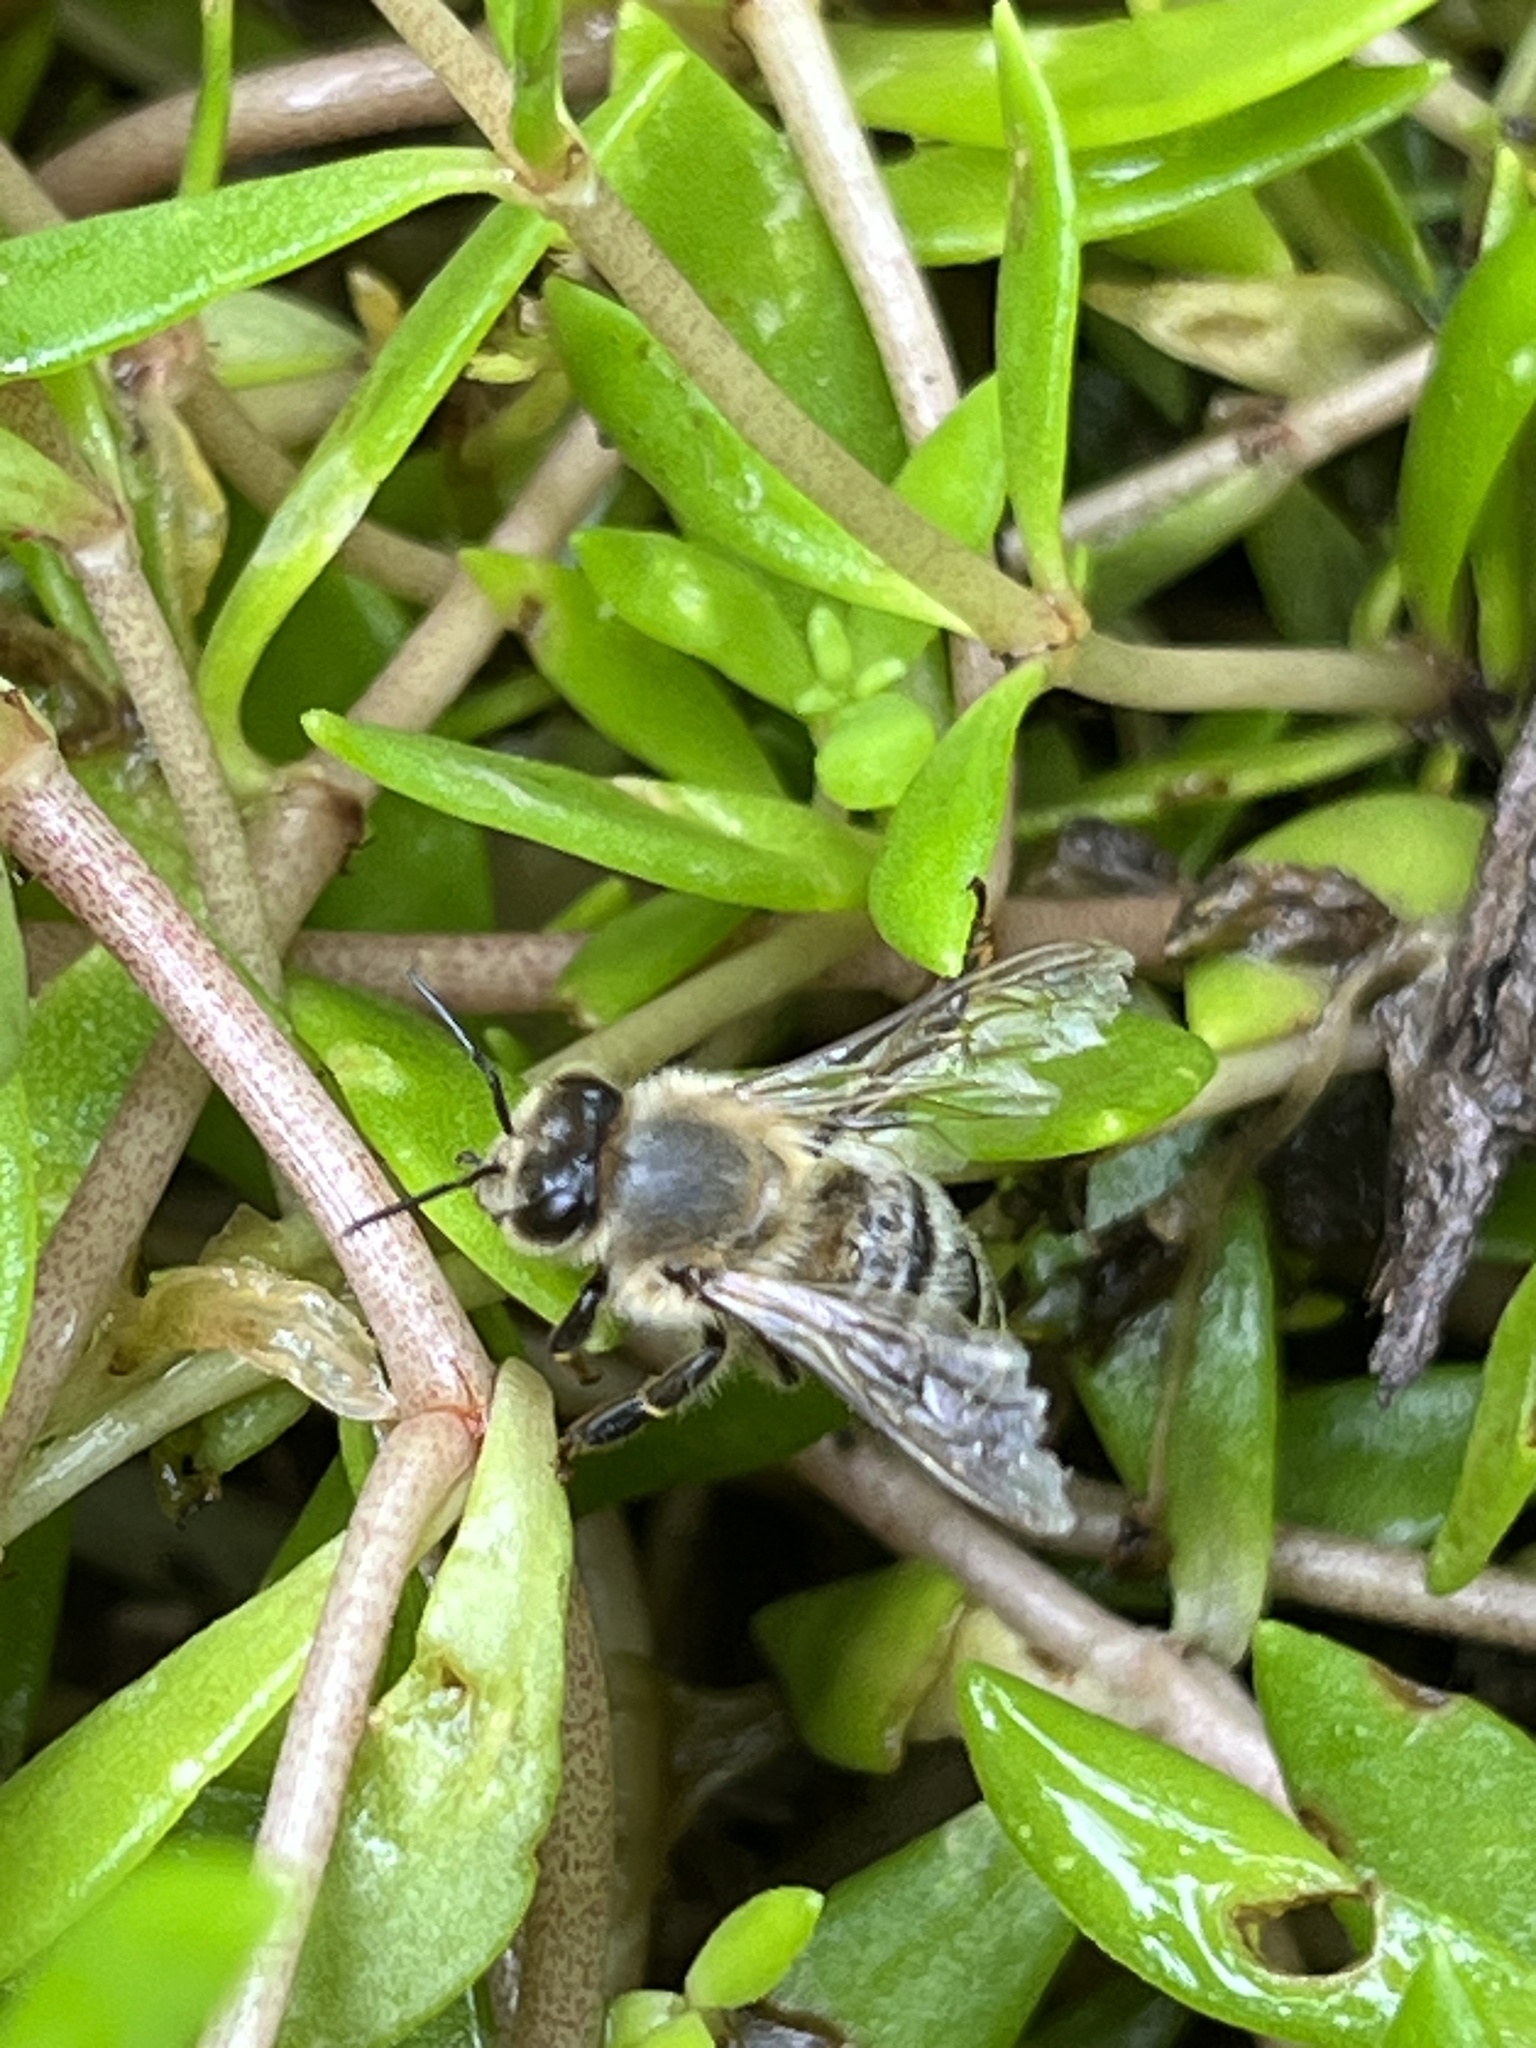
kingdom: Animalia
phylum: Arthropoda
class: Insecta
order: Hymenoptera
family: Apidae
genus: Apis
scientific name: Apis mellifera
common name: Honey bee
